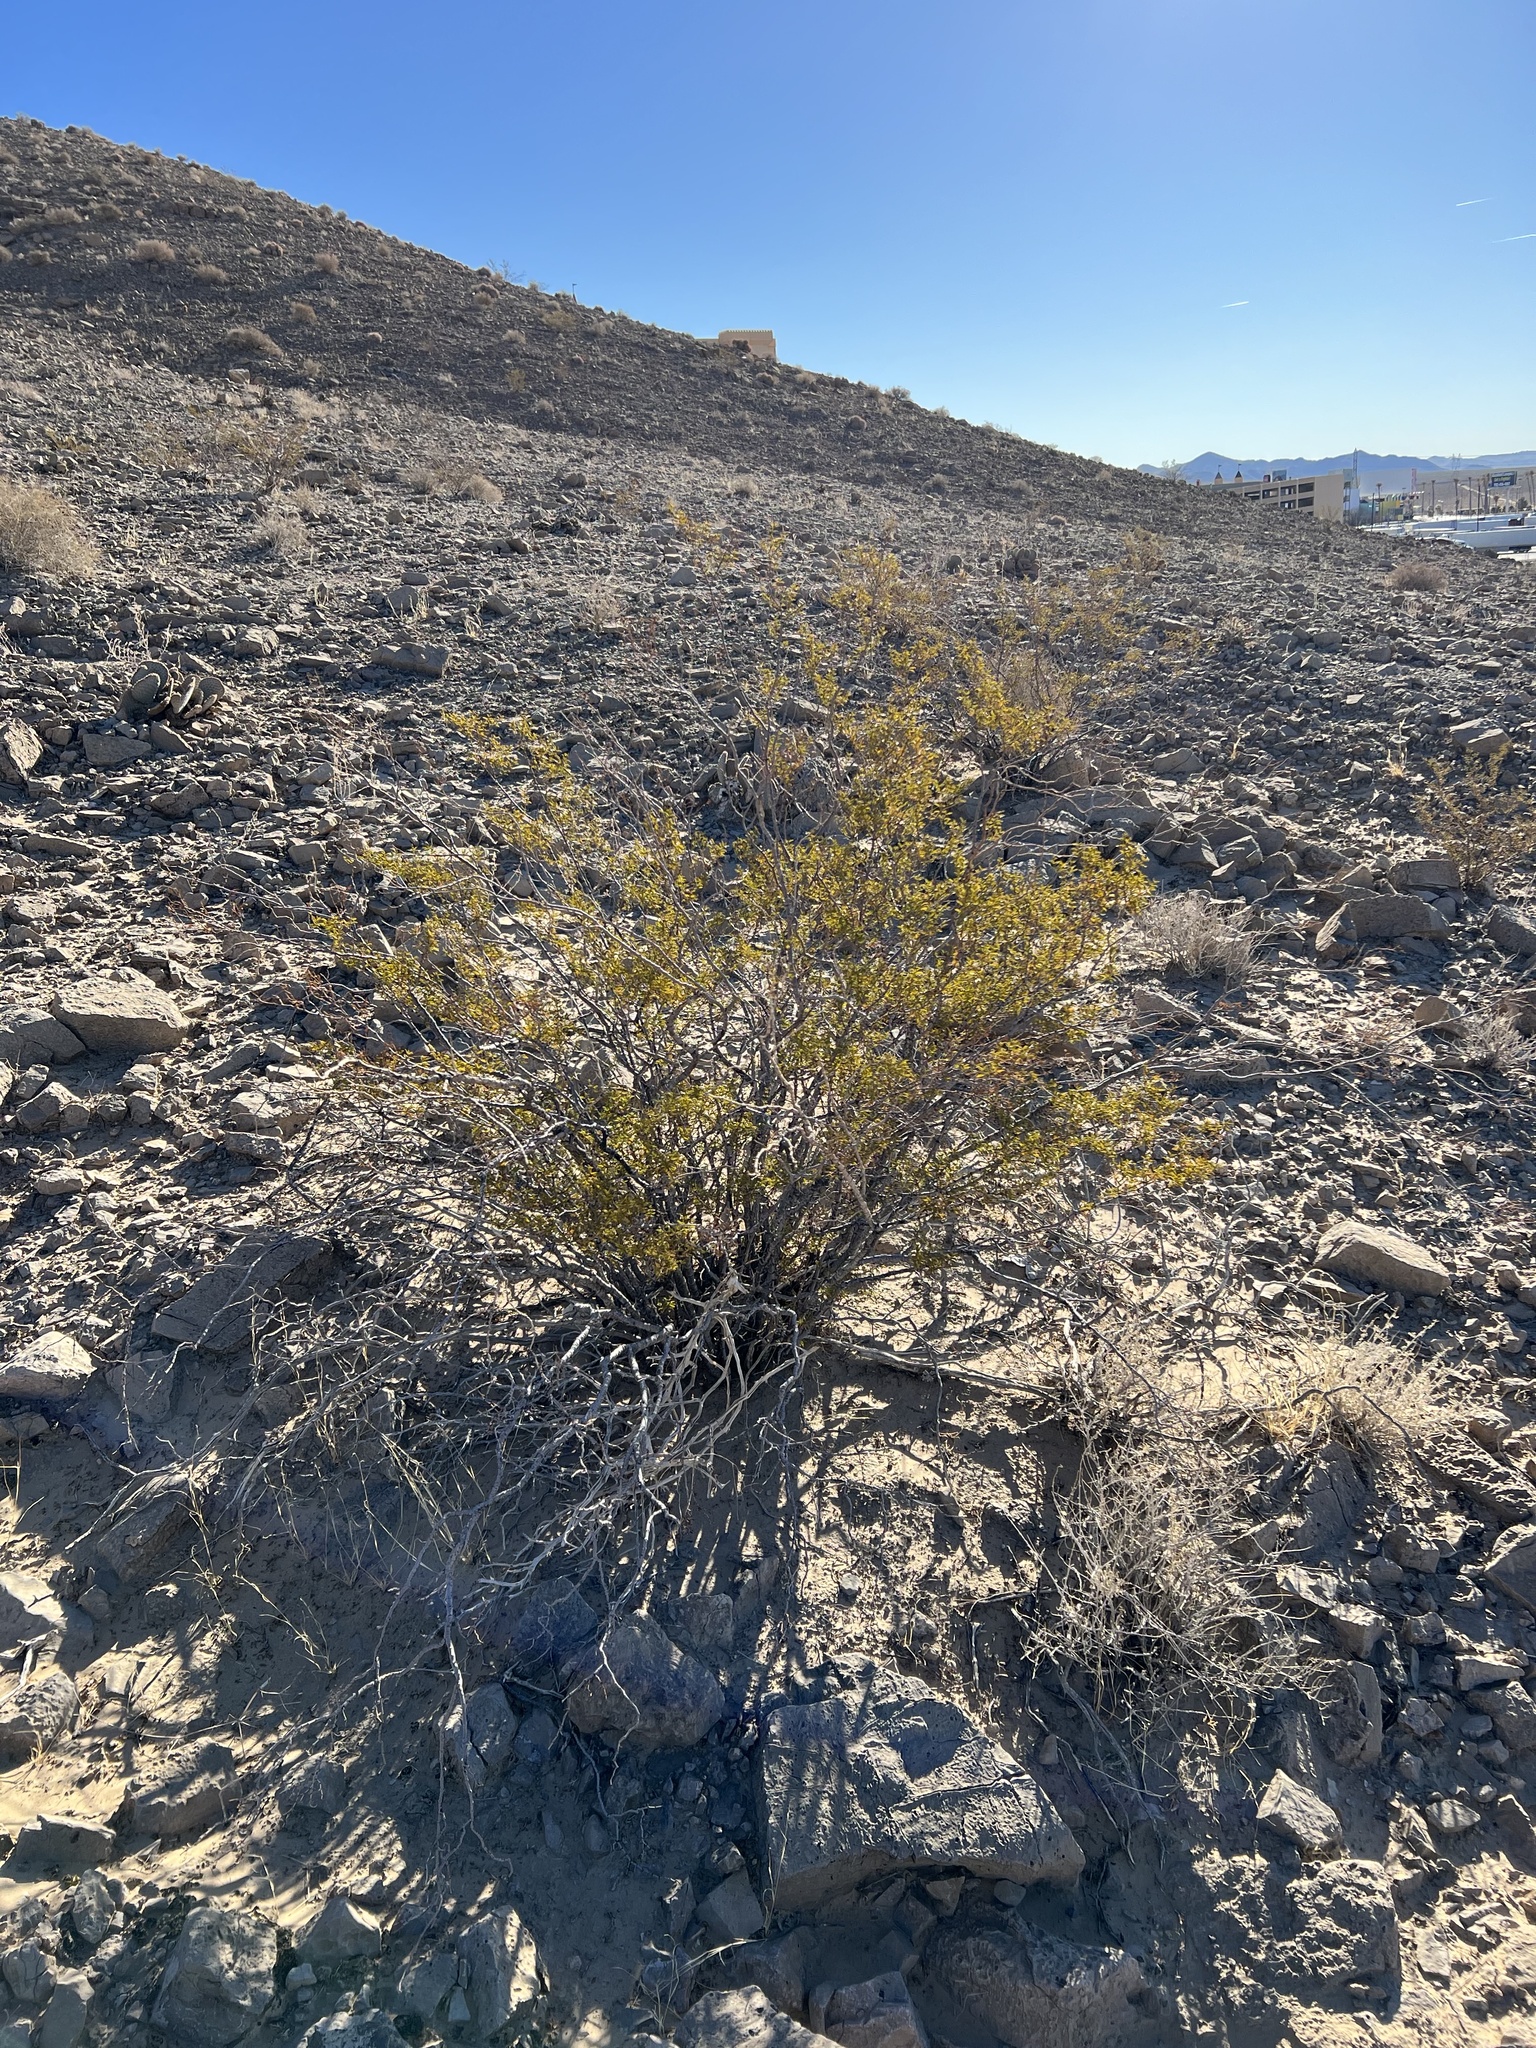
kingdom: Plantae
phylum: Tracheophyta
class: Magnoliopsida
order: Zygophyllales
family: Zygophyllaceae
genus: Larrea
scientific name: Larrea tridentata
